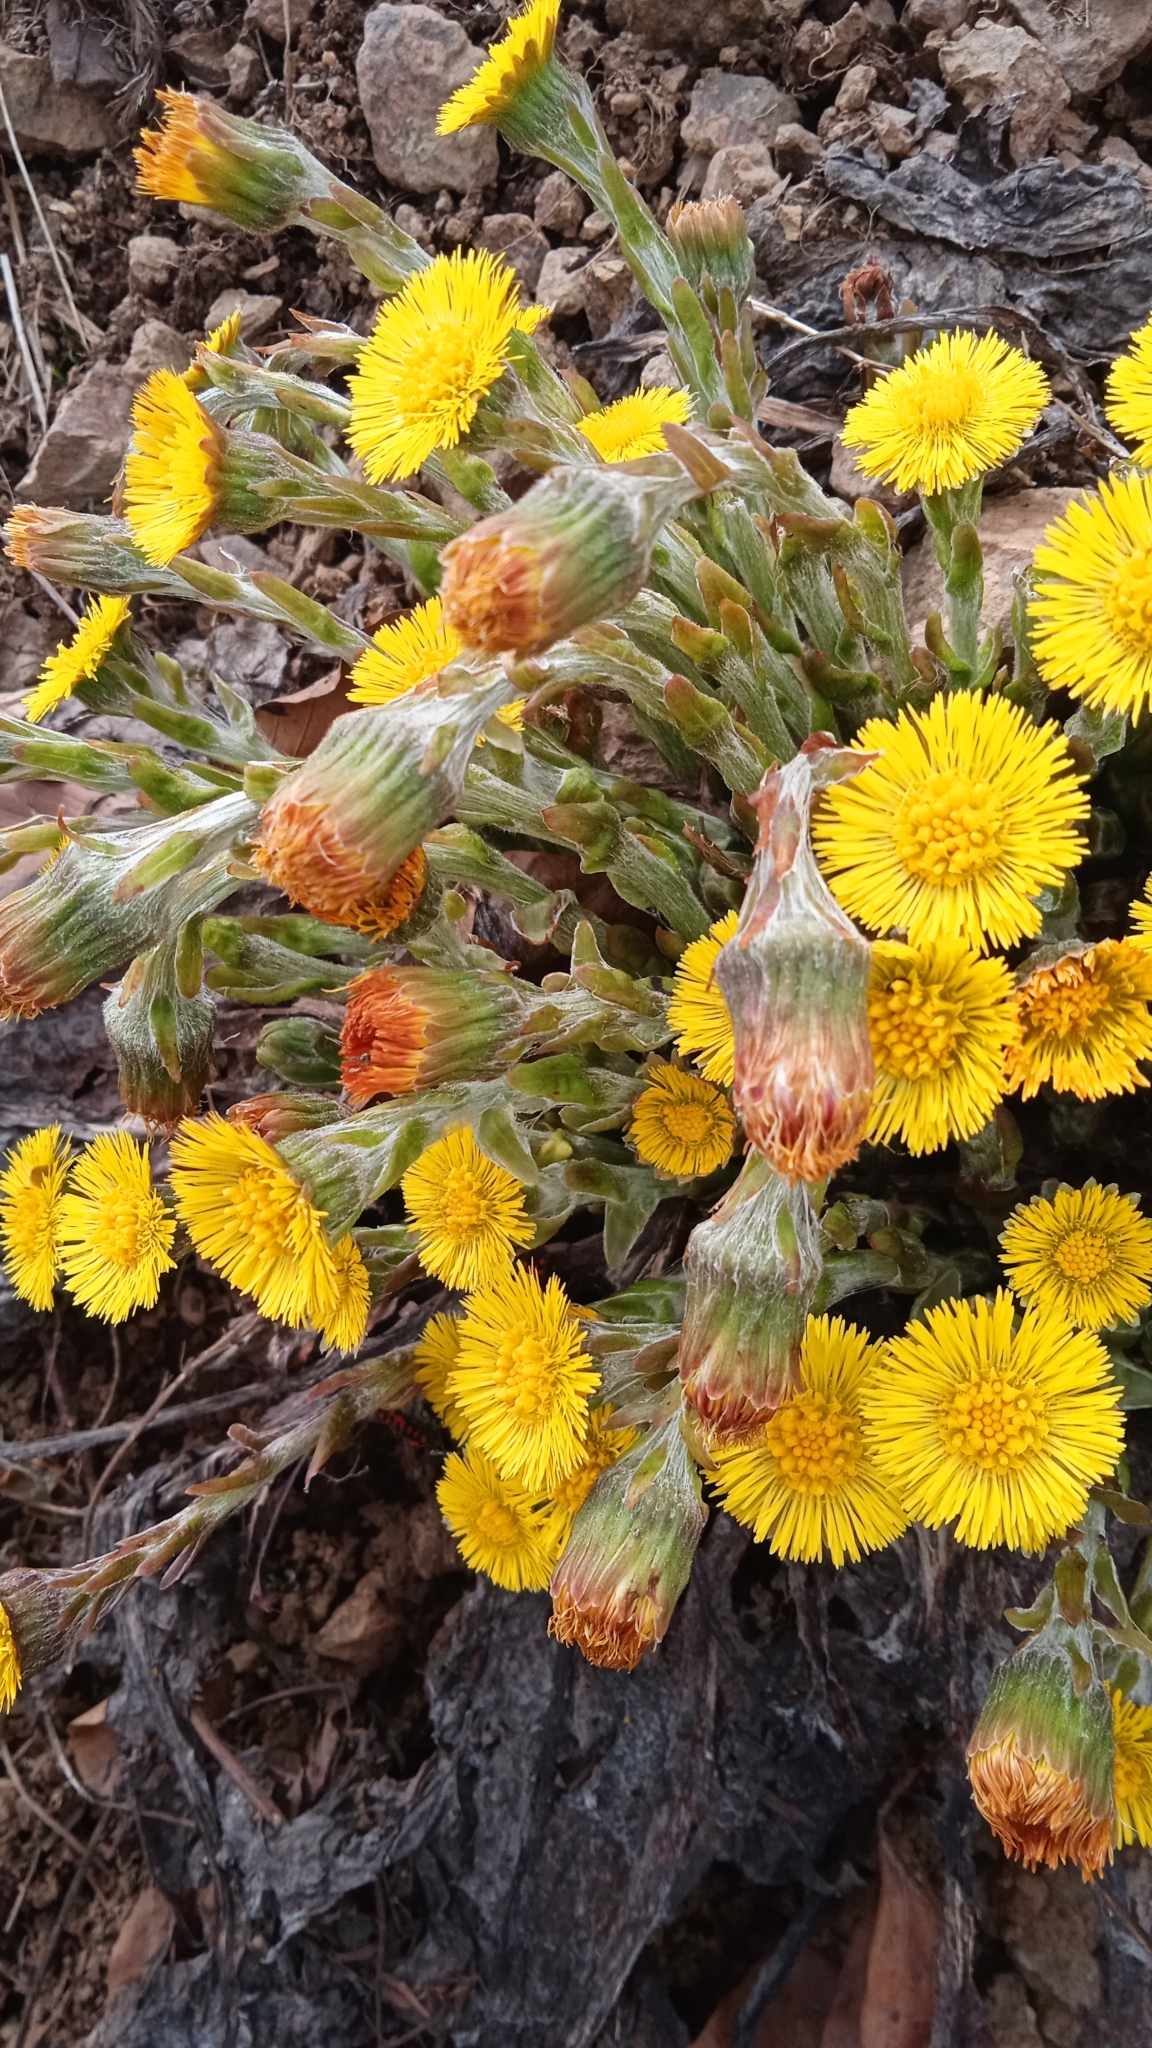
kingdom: Plantae
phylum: Tracheophyta
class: Magnoliopsida
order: Asterales
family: Asteraceae
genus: Tussilago
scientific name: Tussilago farfara
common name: Coltsfoot
